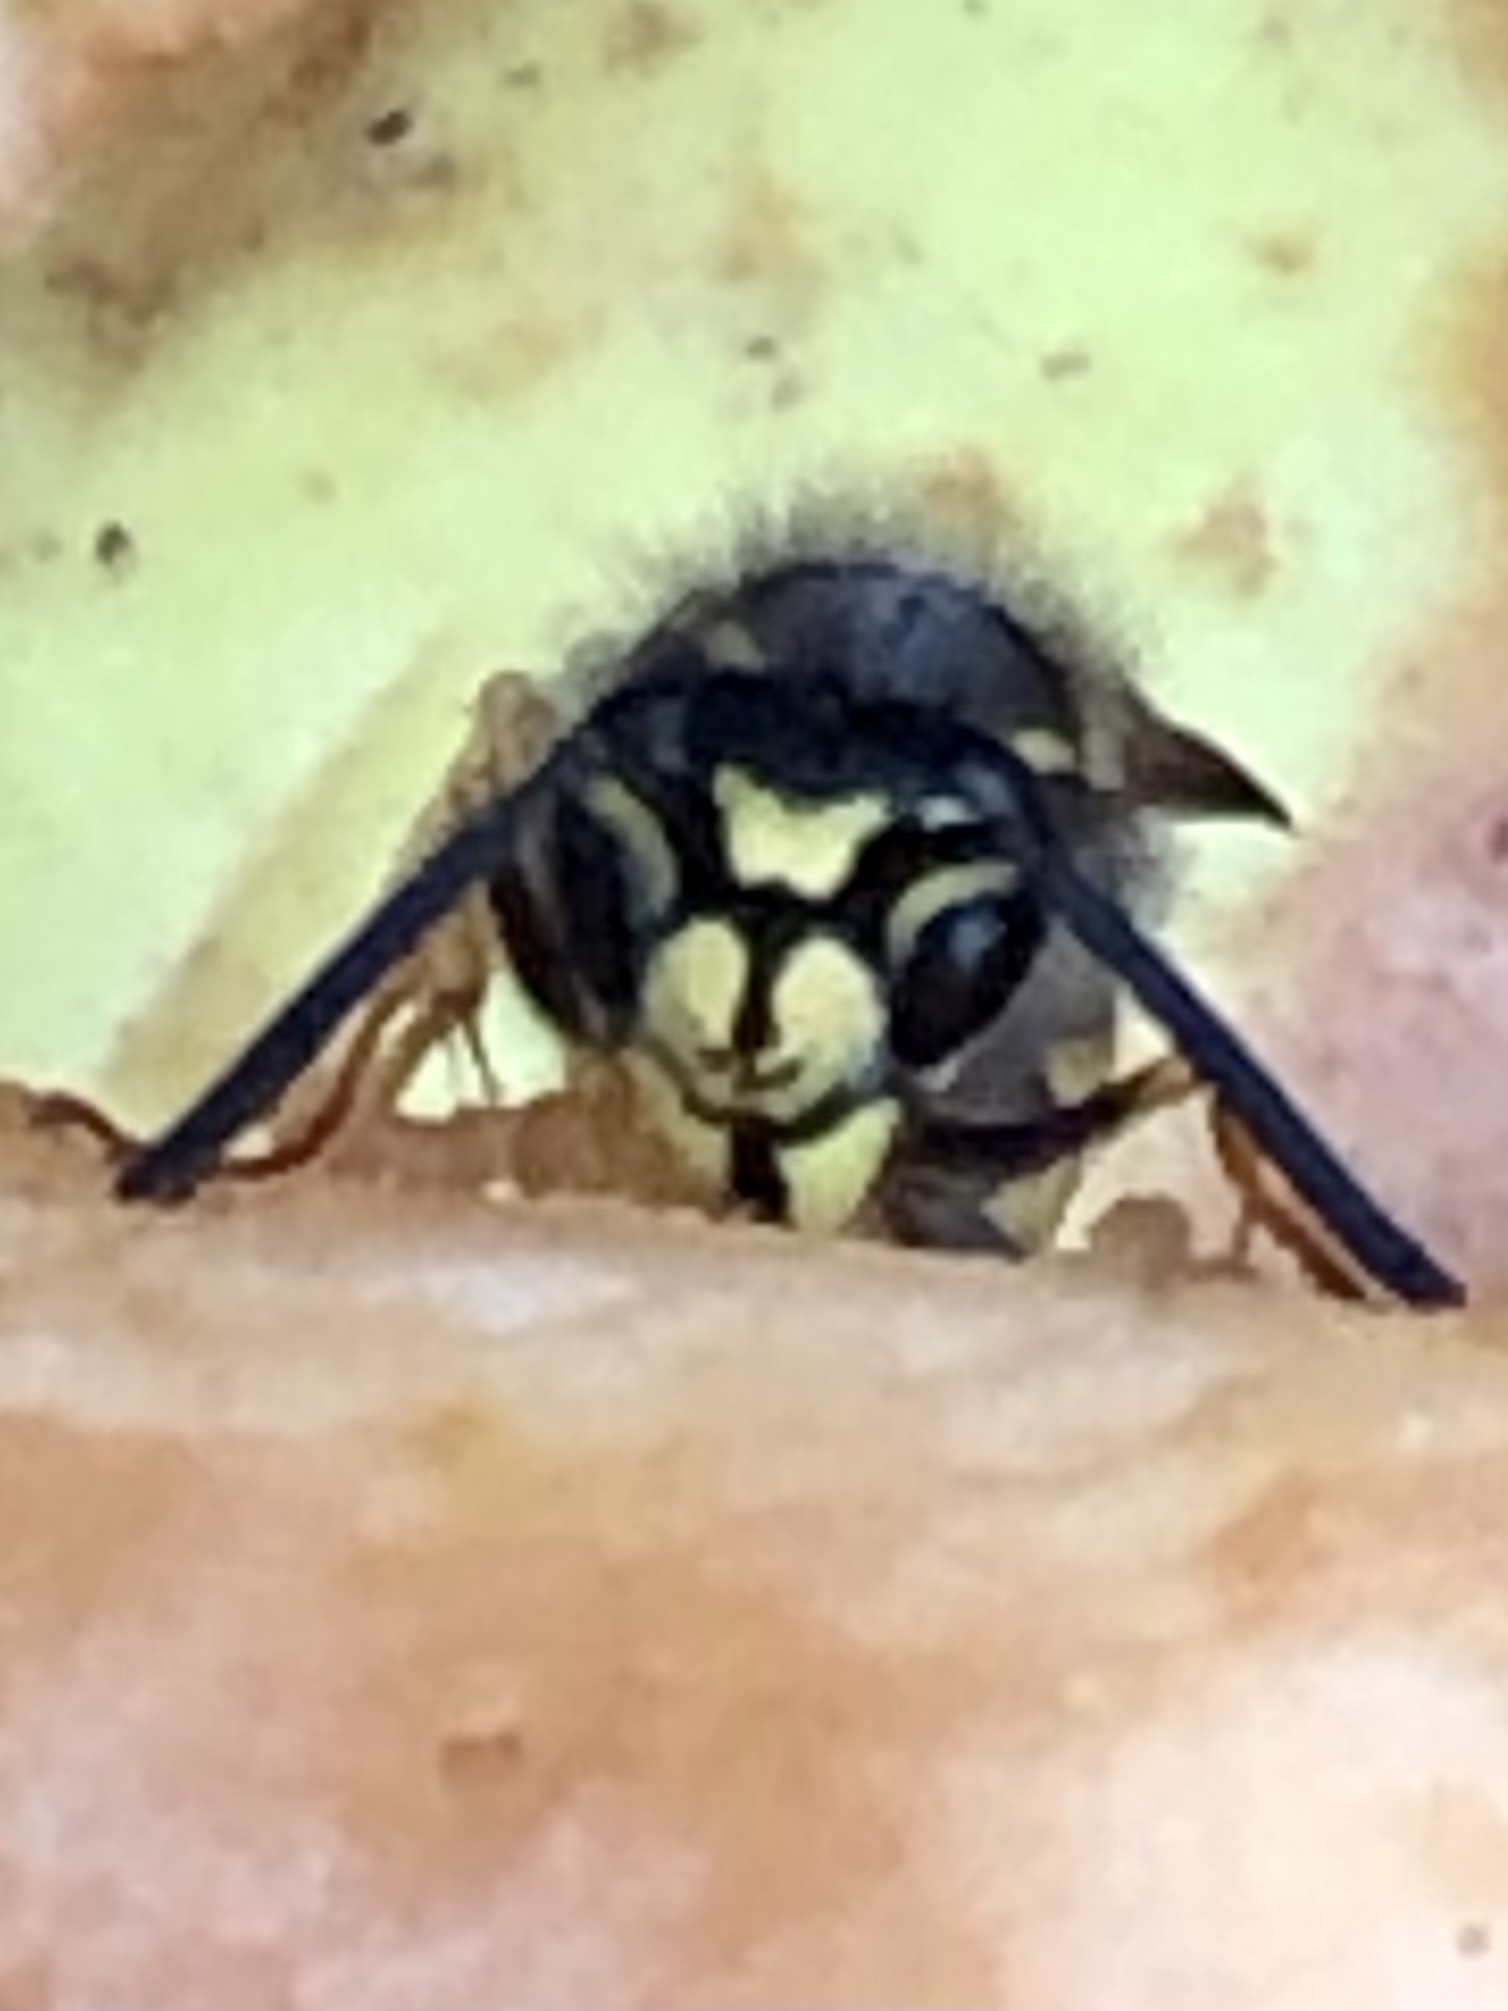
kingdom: Animalia
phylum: Arthropoda
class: Insecta
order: Hymenoptera
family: Vespidae
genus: Vespula
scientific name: Vespula alascensis
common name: Alaska yellowjacket
